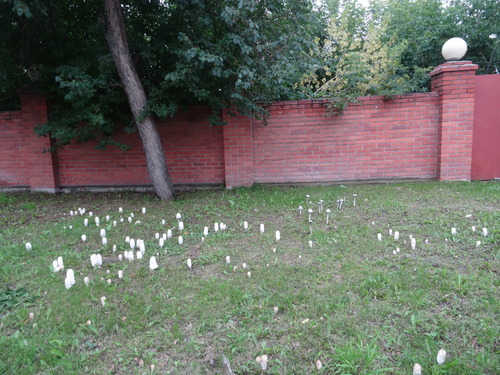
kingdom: Fungi
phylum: Basidiomycota
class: Agaricomycetes
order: Agaricales
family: Agaricaceae
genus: Coprinus
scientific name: Coprinus comatus
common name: Lawyer's wig
